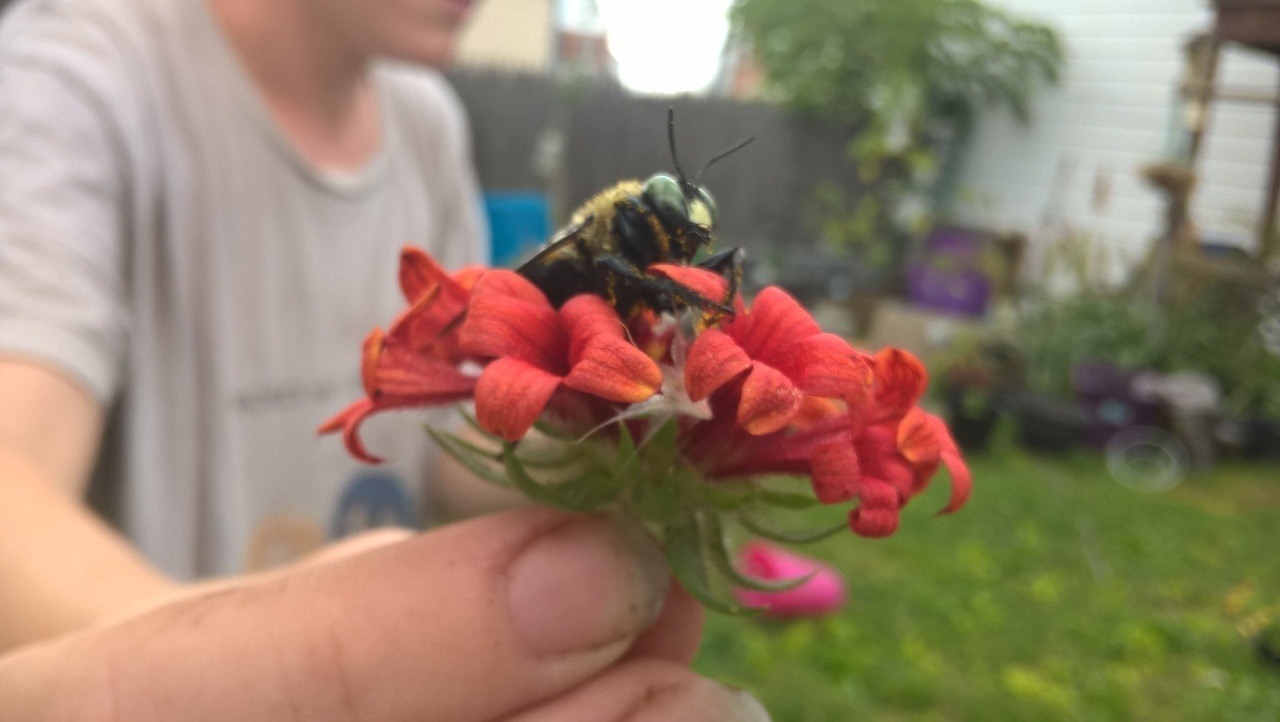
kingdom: Animalia
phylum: Arthropoda
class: Insecta
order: Hymenoptera
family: Apidae
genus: Xylocopa
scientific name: Xylocopa virginica
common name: Carpenter bee
